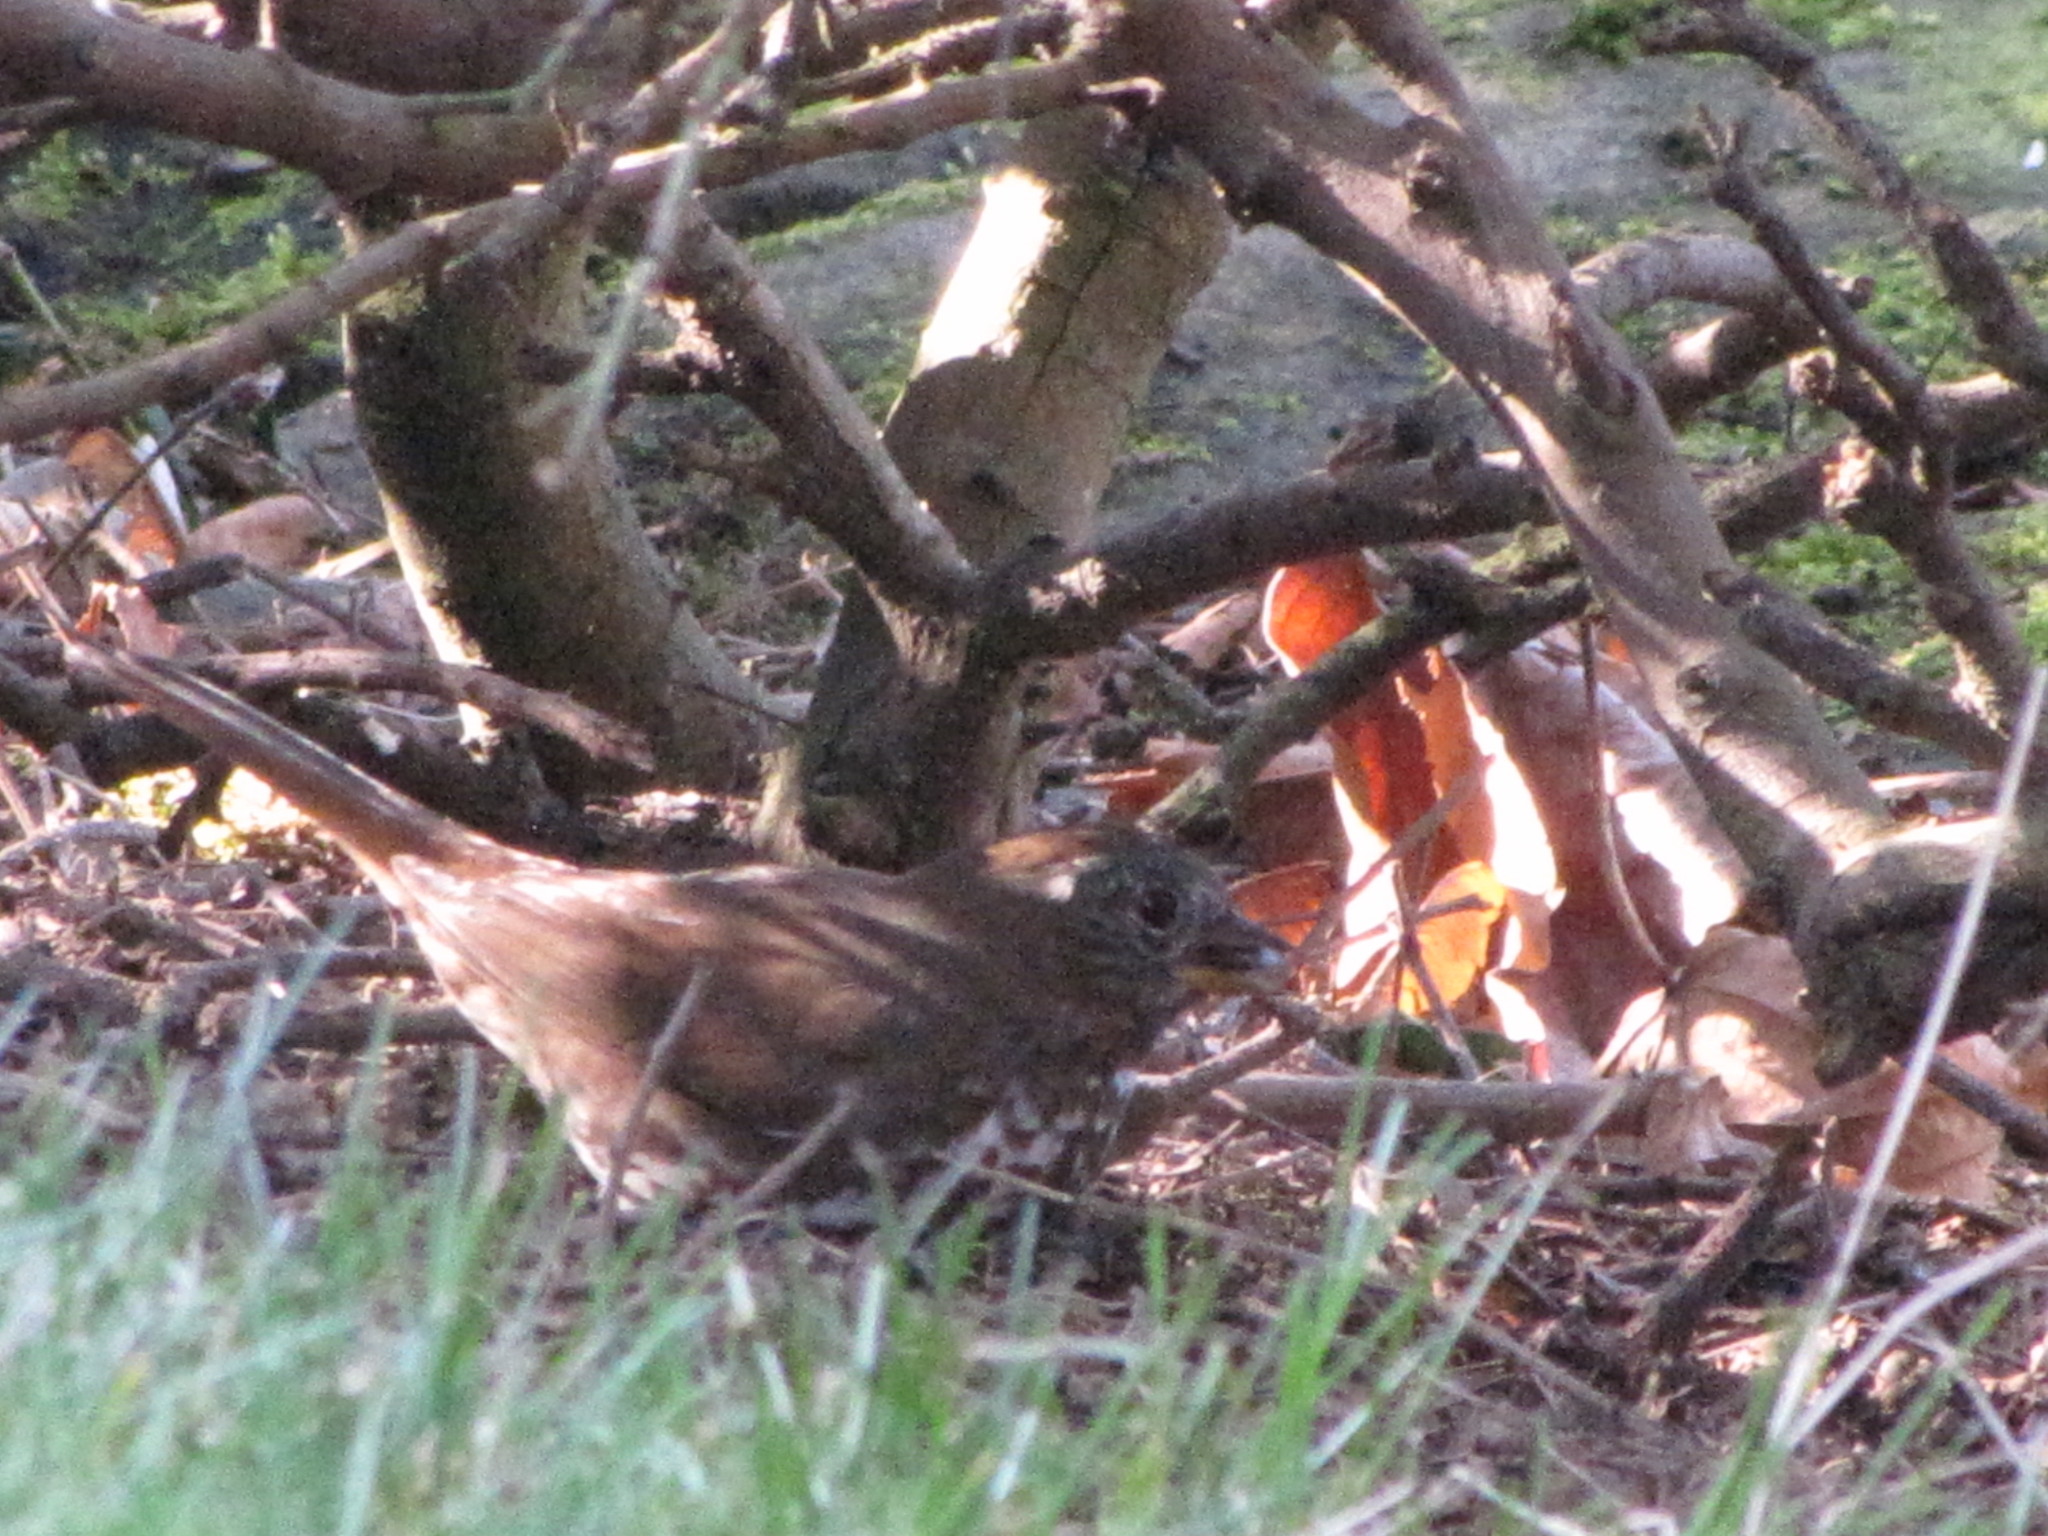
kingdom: Animalia
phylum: Chordata
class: Aves
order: Passeriformes
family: Passerellidae
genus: Passerella
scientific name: Passerella iliaca
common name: Fox sparrow
